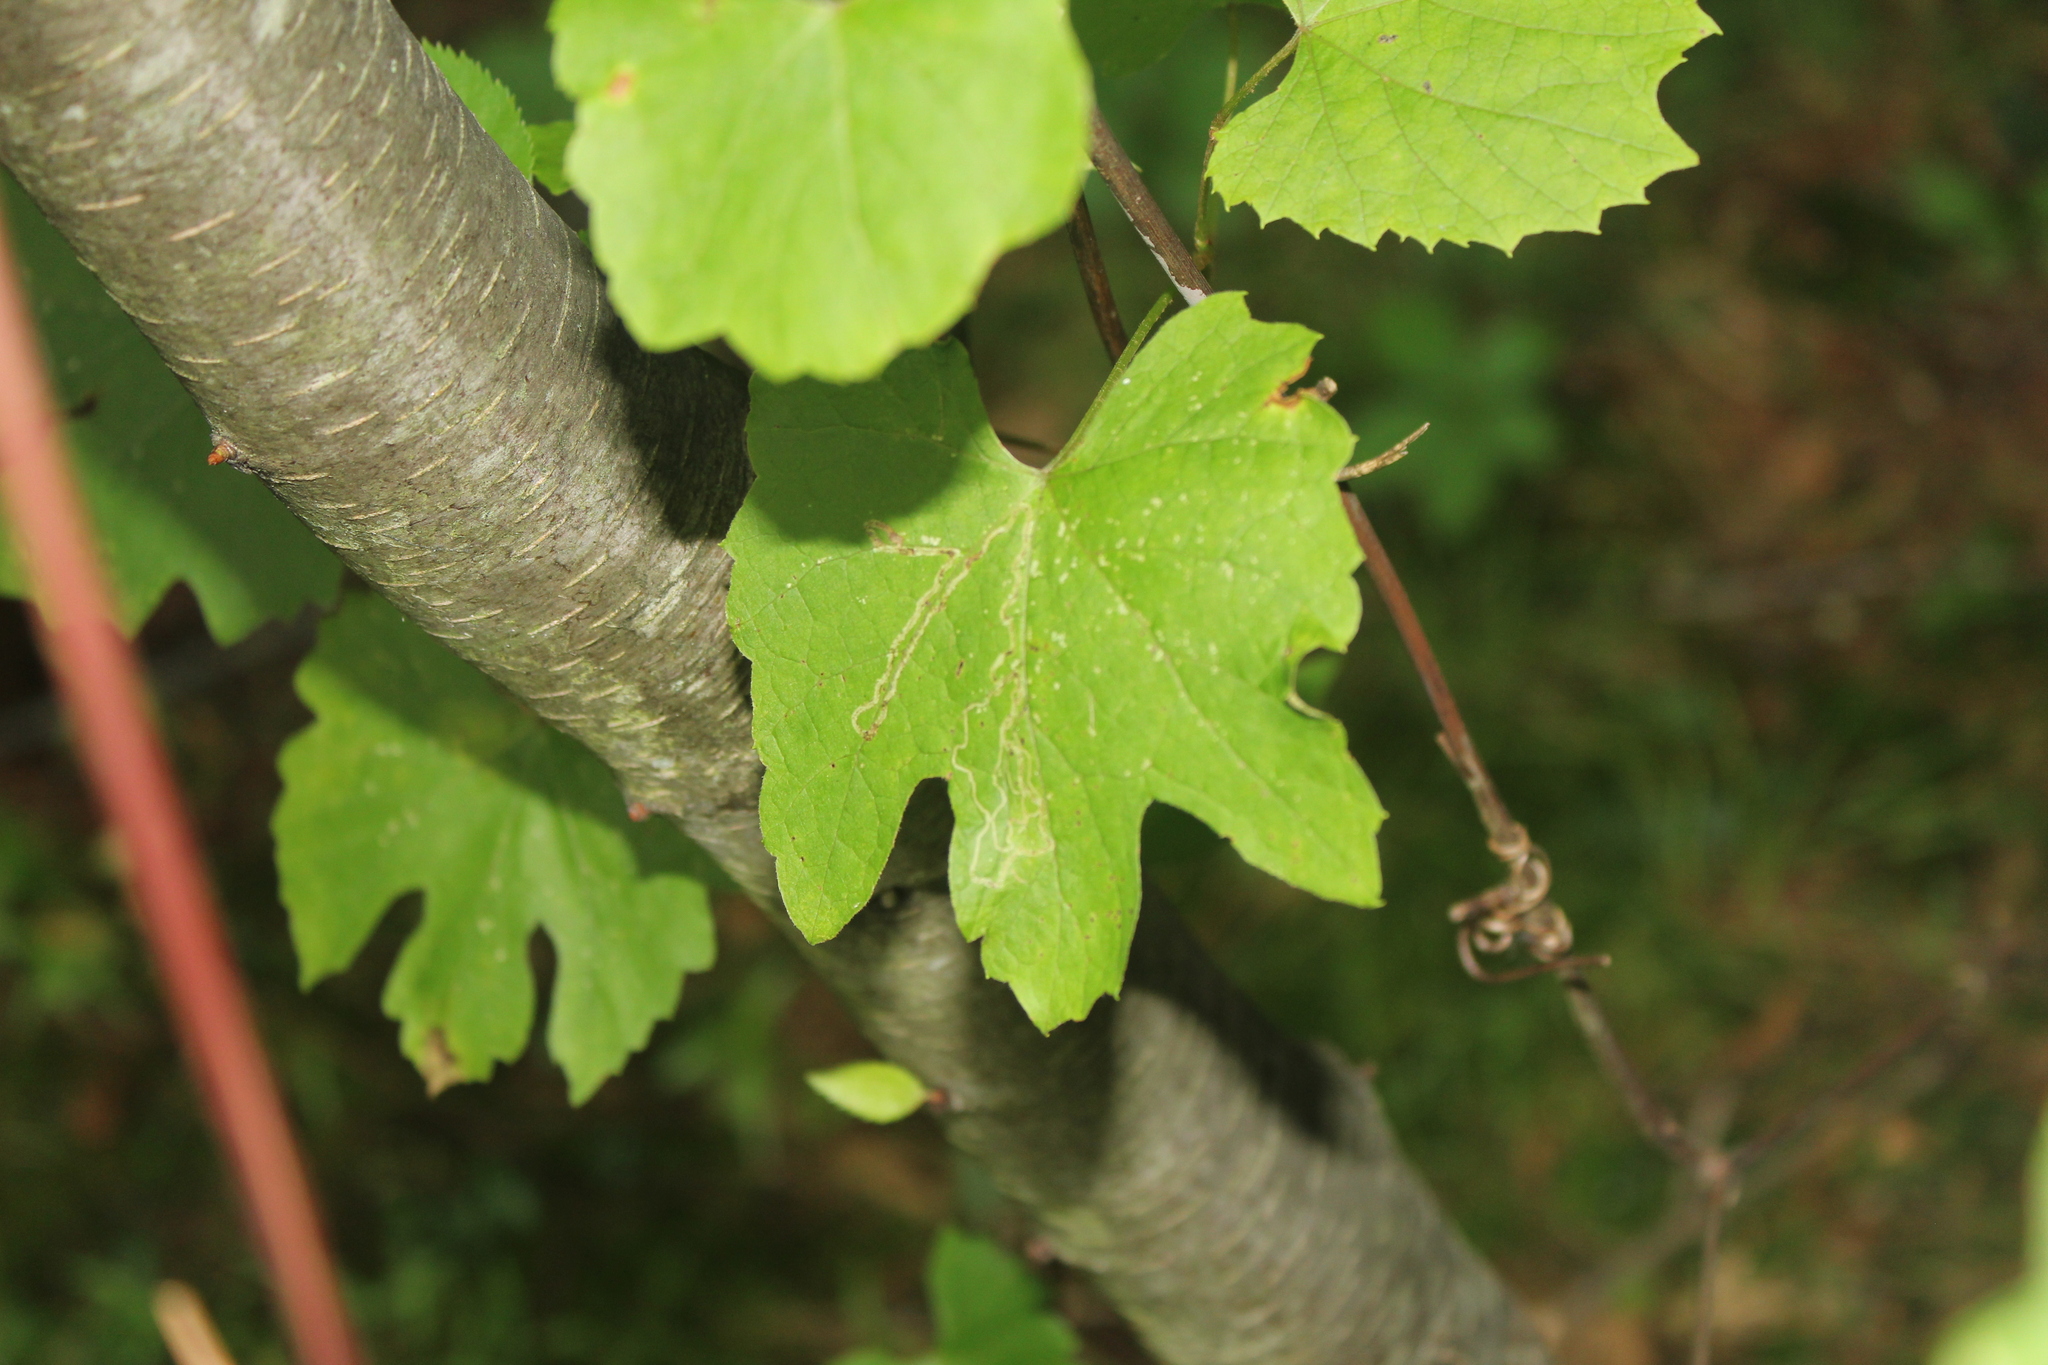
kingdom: Animalia
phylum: Arthropoda
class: Insecta
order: Lepidoptera
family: Gracillariidae
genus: Phyllocnistis
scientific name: Phyllocnistis vitifoliella
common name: Grape leaf-miner moth
